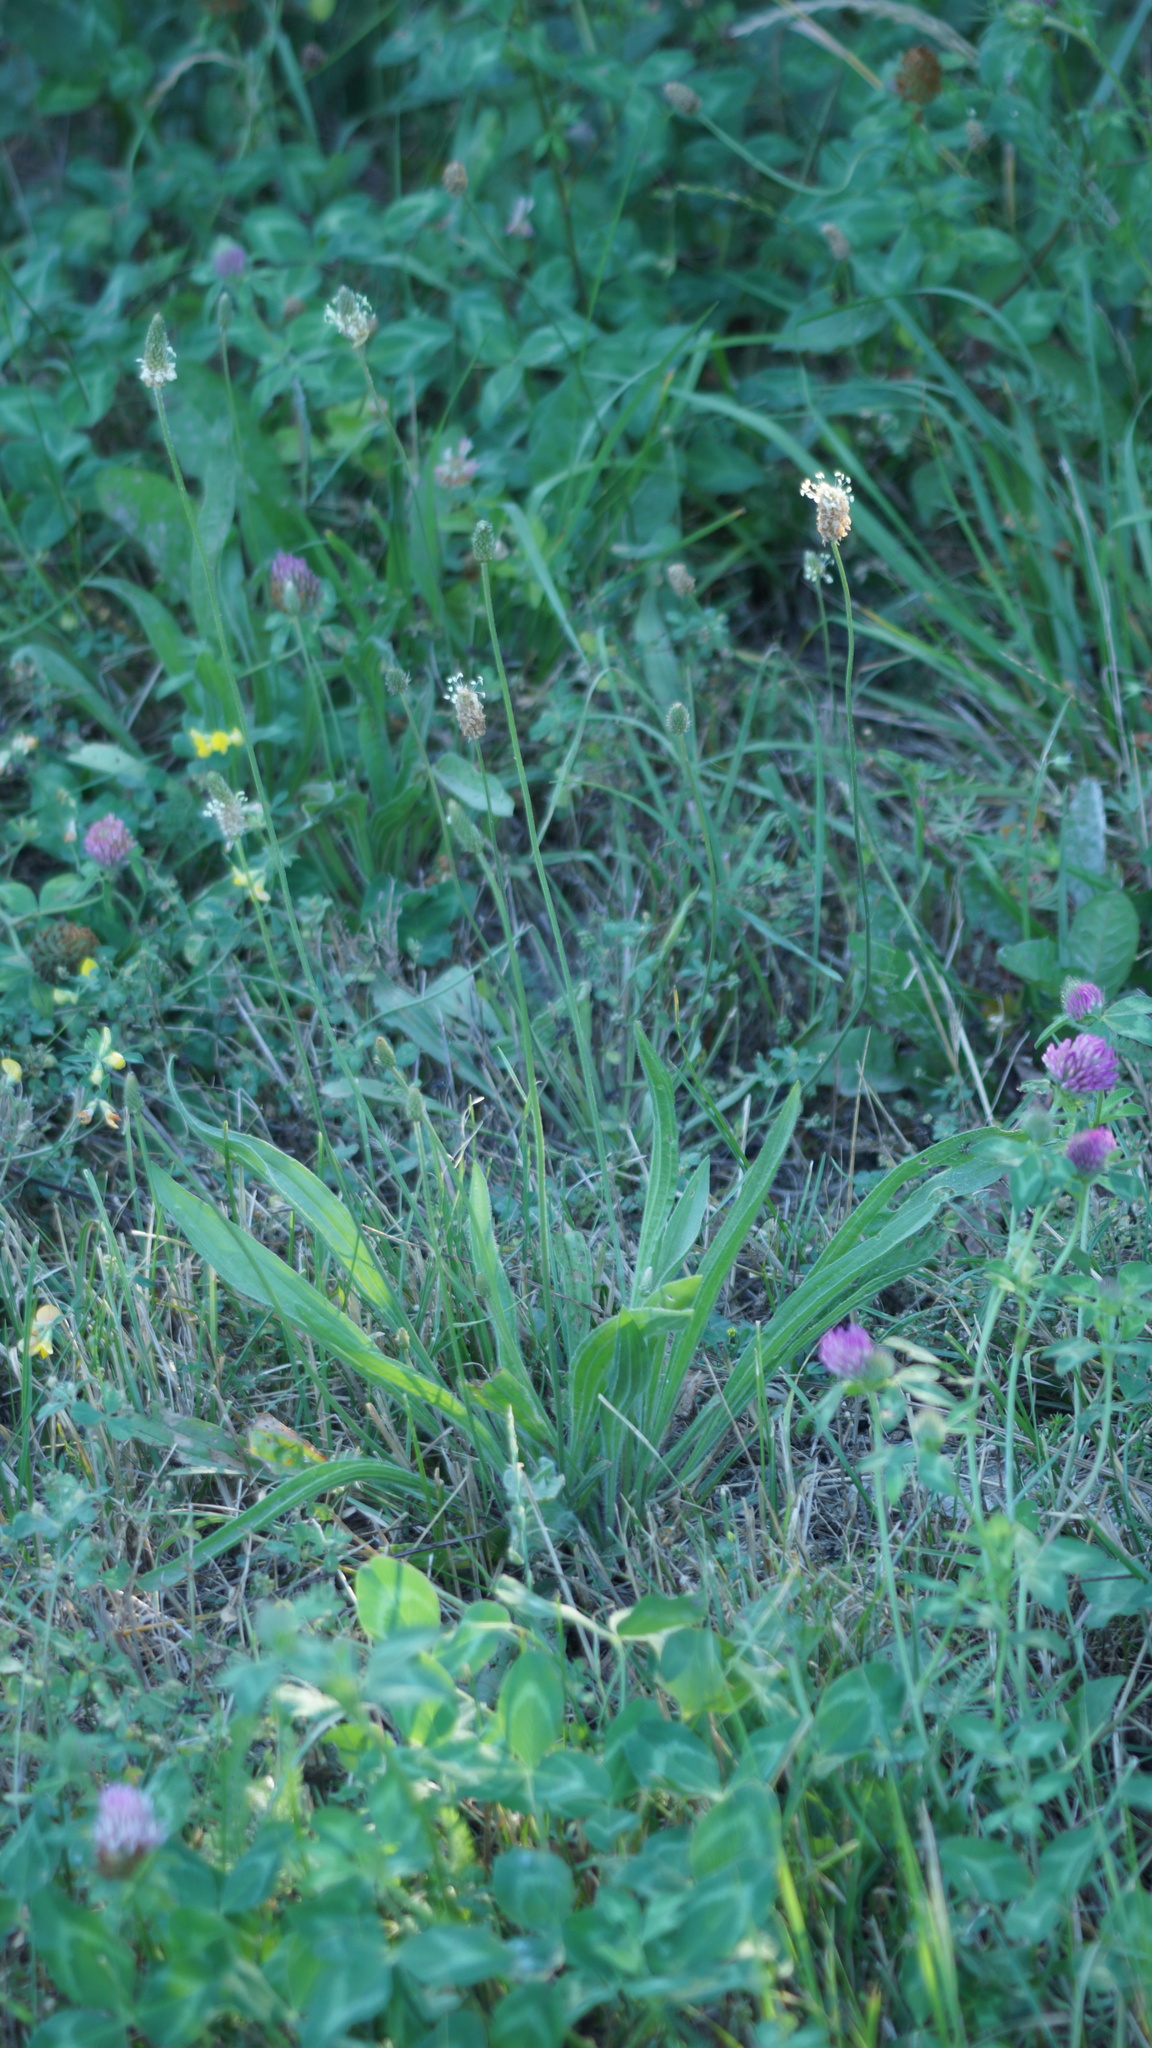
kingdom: Plantae
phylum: Tracheophyta
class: Magnoliopsida
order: Lamiales
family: Plantaginaceae
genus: Plantago
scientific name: Plantago lanceolata
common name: Ribwort plantain
